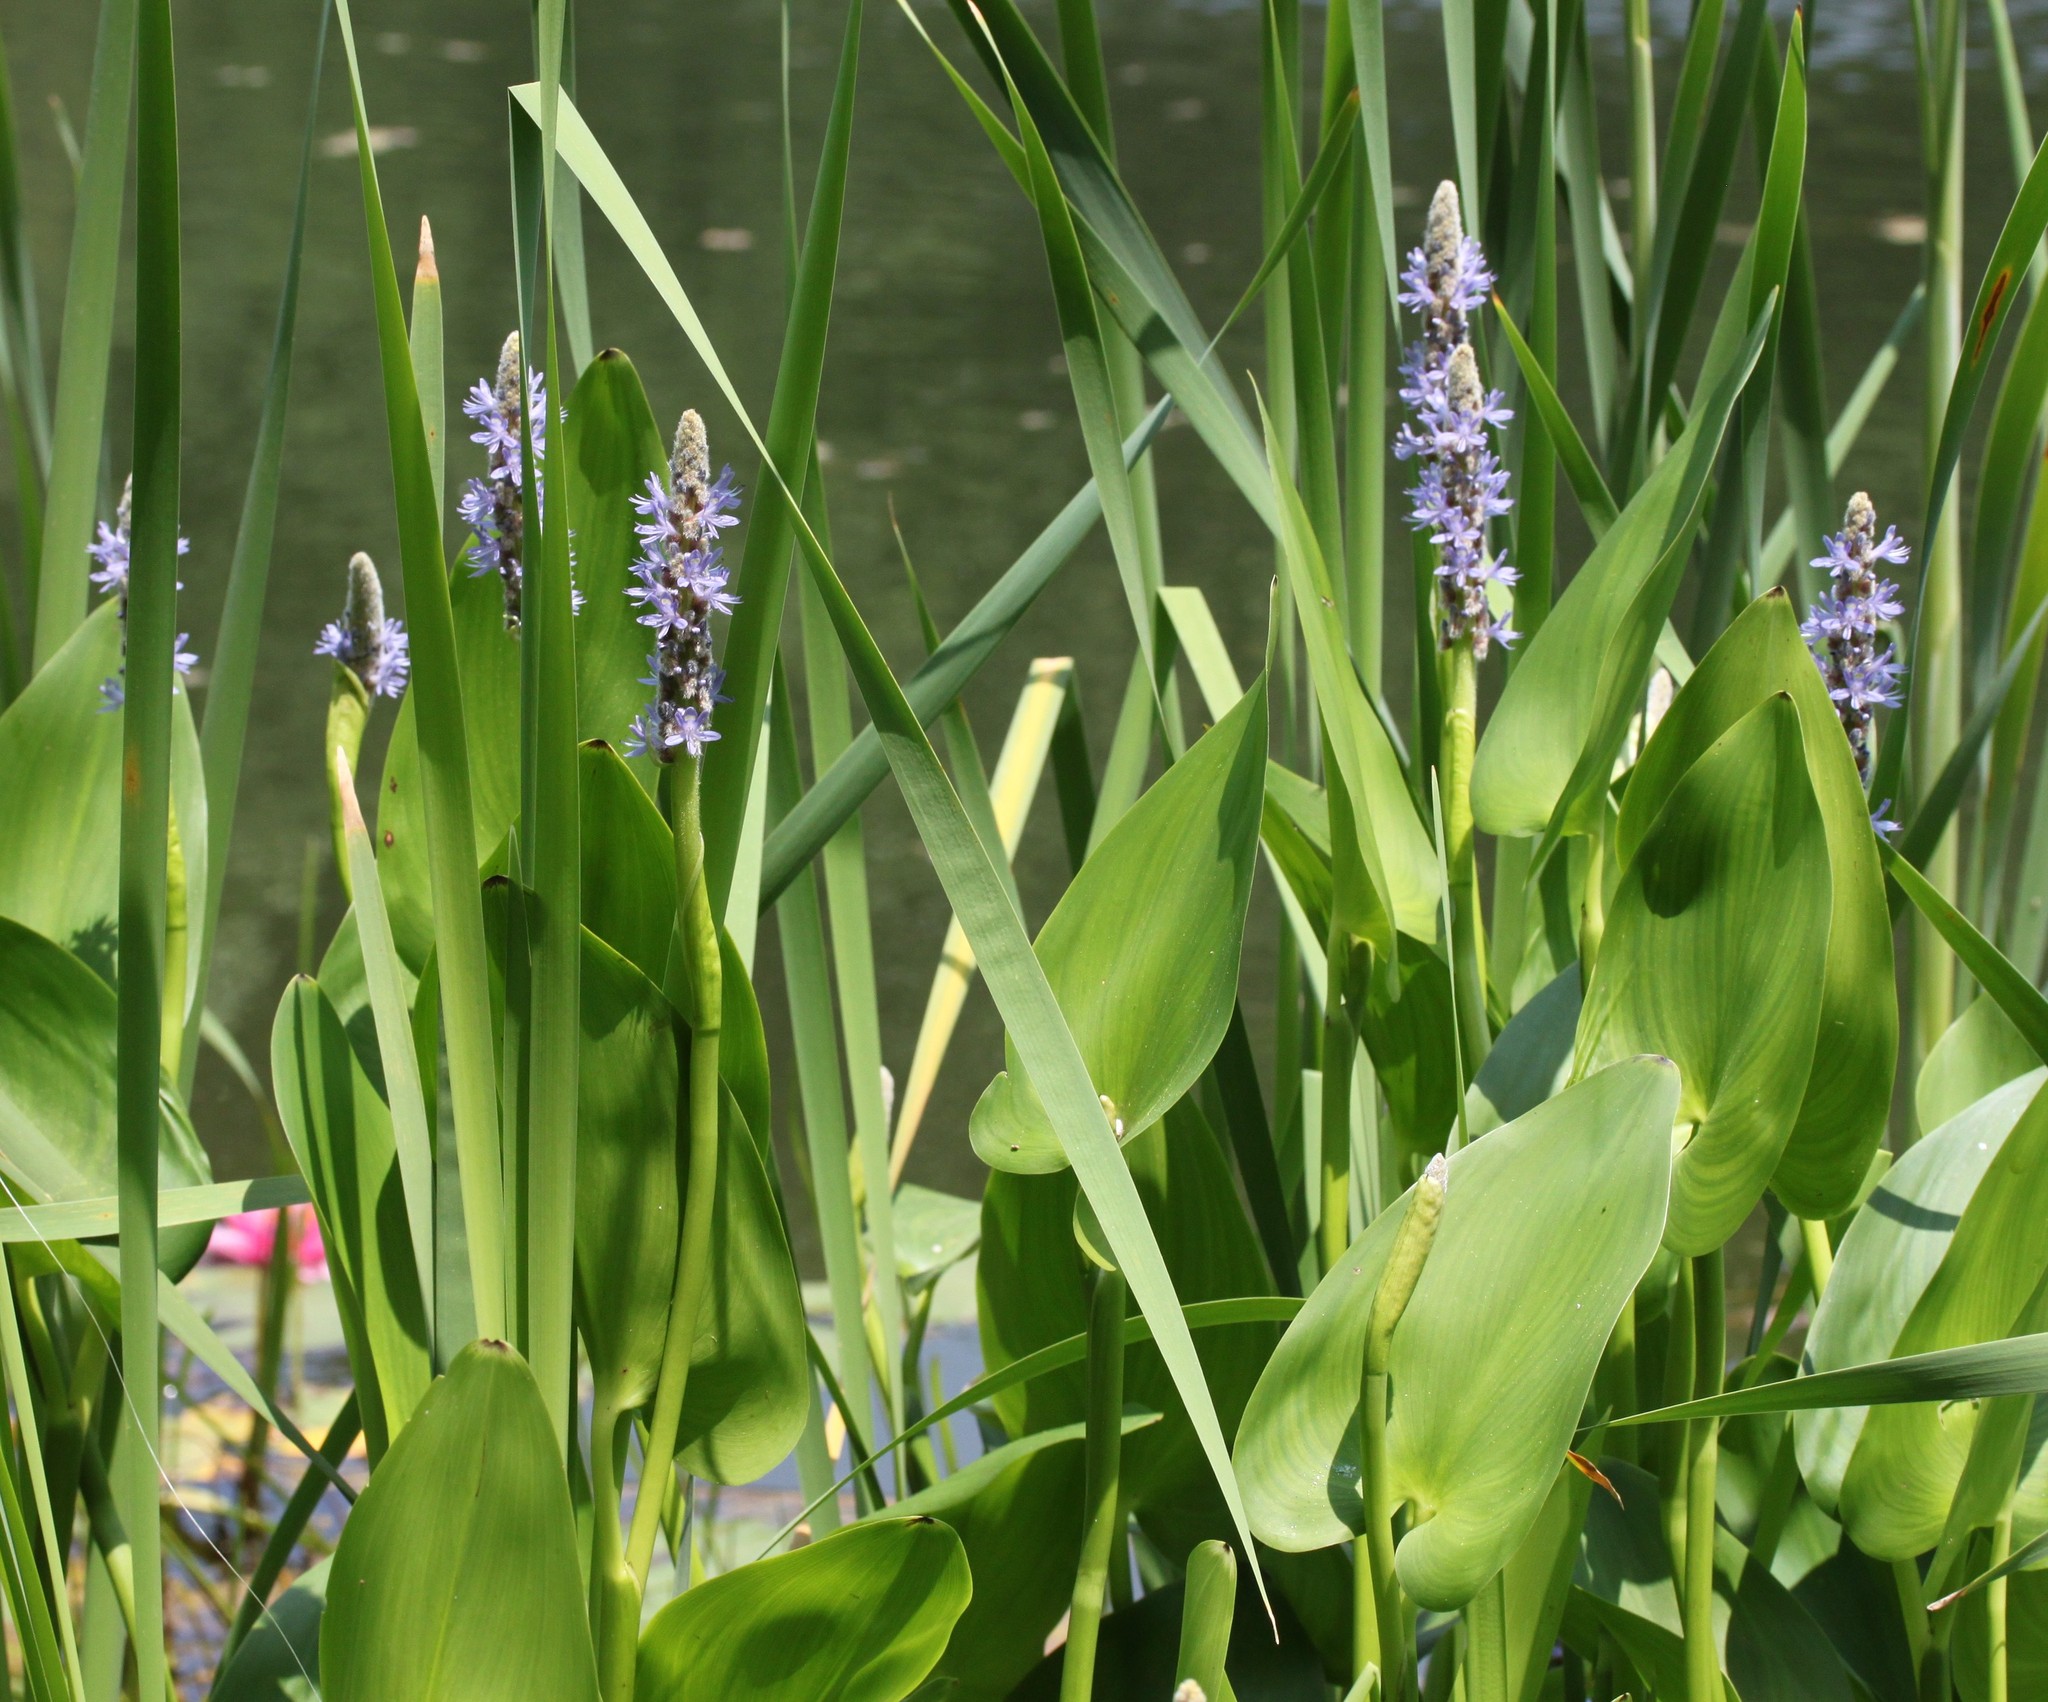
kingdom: Plantae
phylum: Tracheophyta
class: Liliopsida
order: Commelinales
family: Pontederiaceae
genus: Pontederia
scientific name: Pontederia cordata
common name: Pickerelweed
